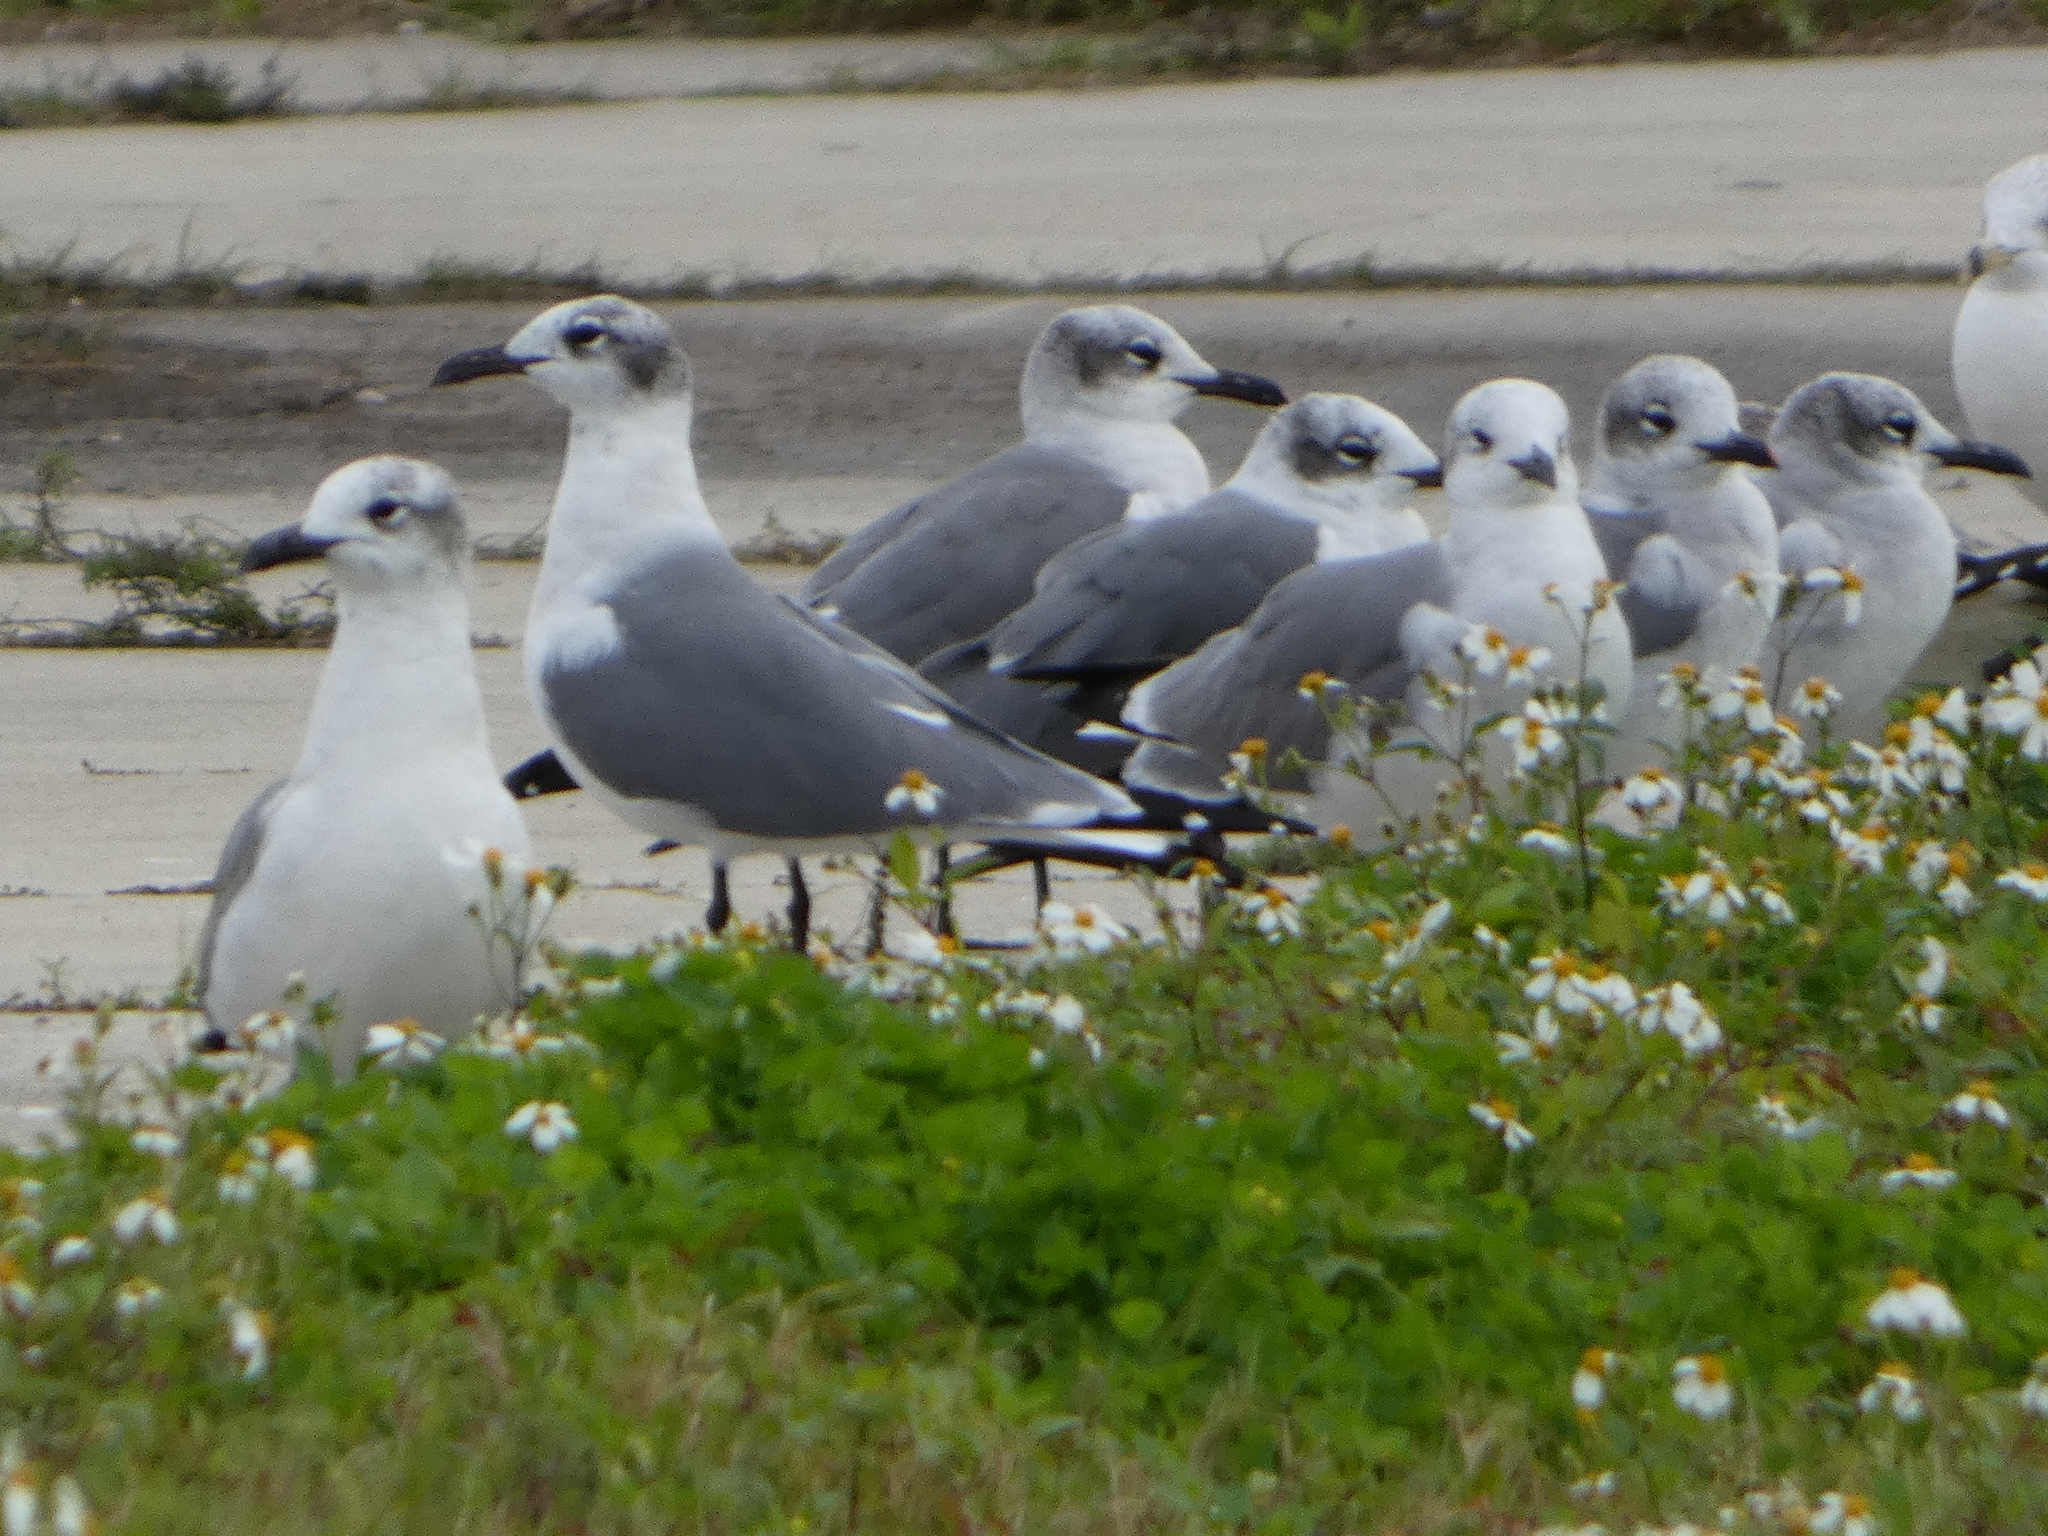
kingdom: Animalia
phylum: Chordata
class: Aves
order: Charadriiformes
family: Laridae
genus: Leucophaeus
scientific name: Leucophaeus atricilla
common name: Laughing gull
